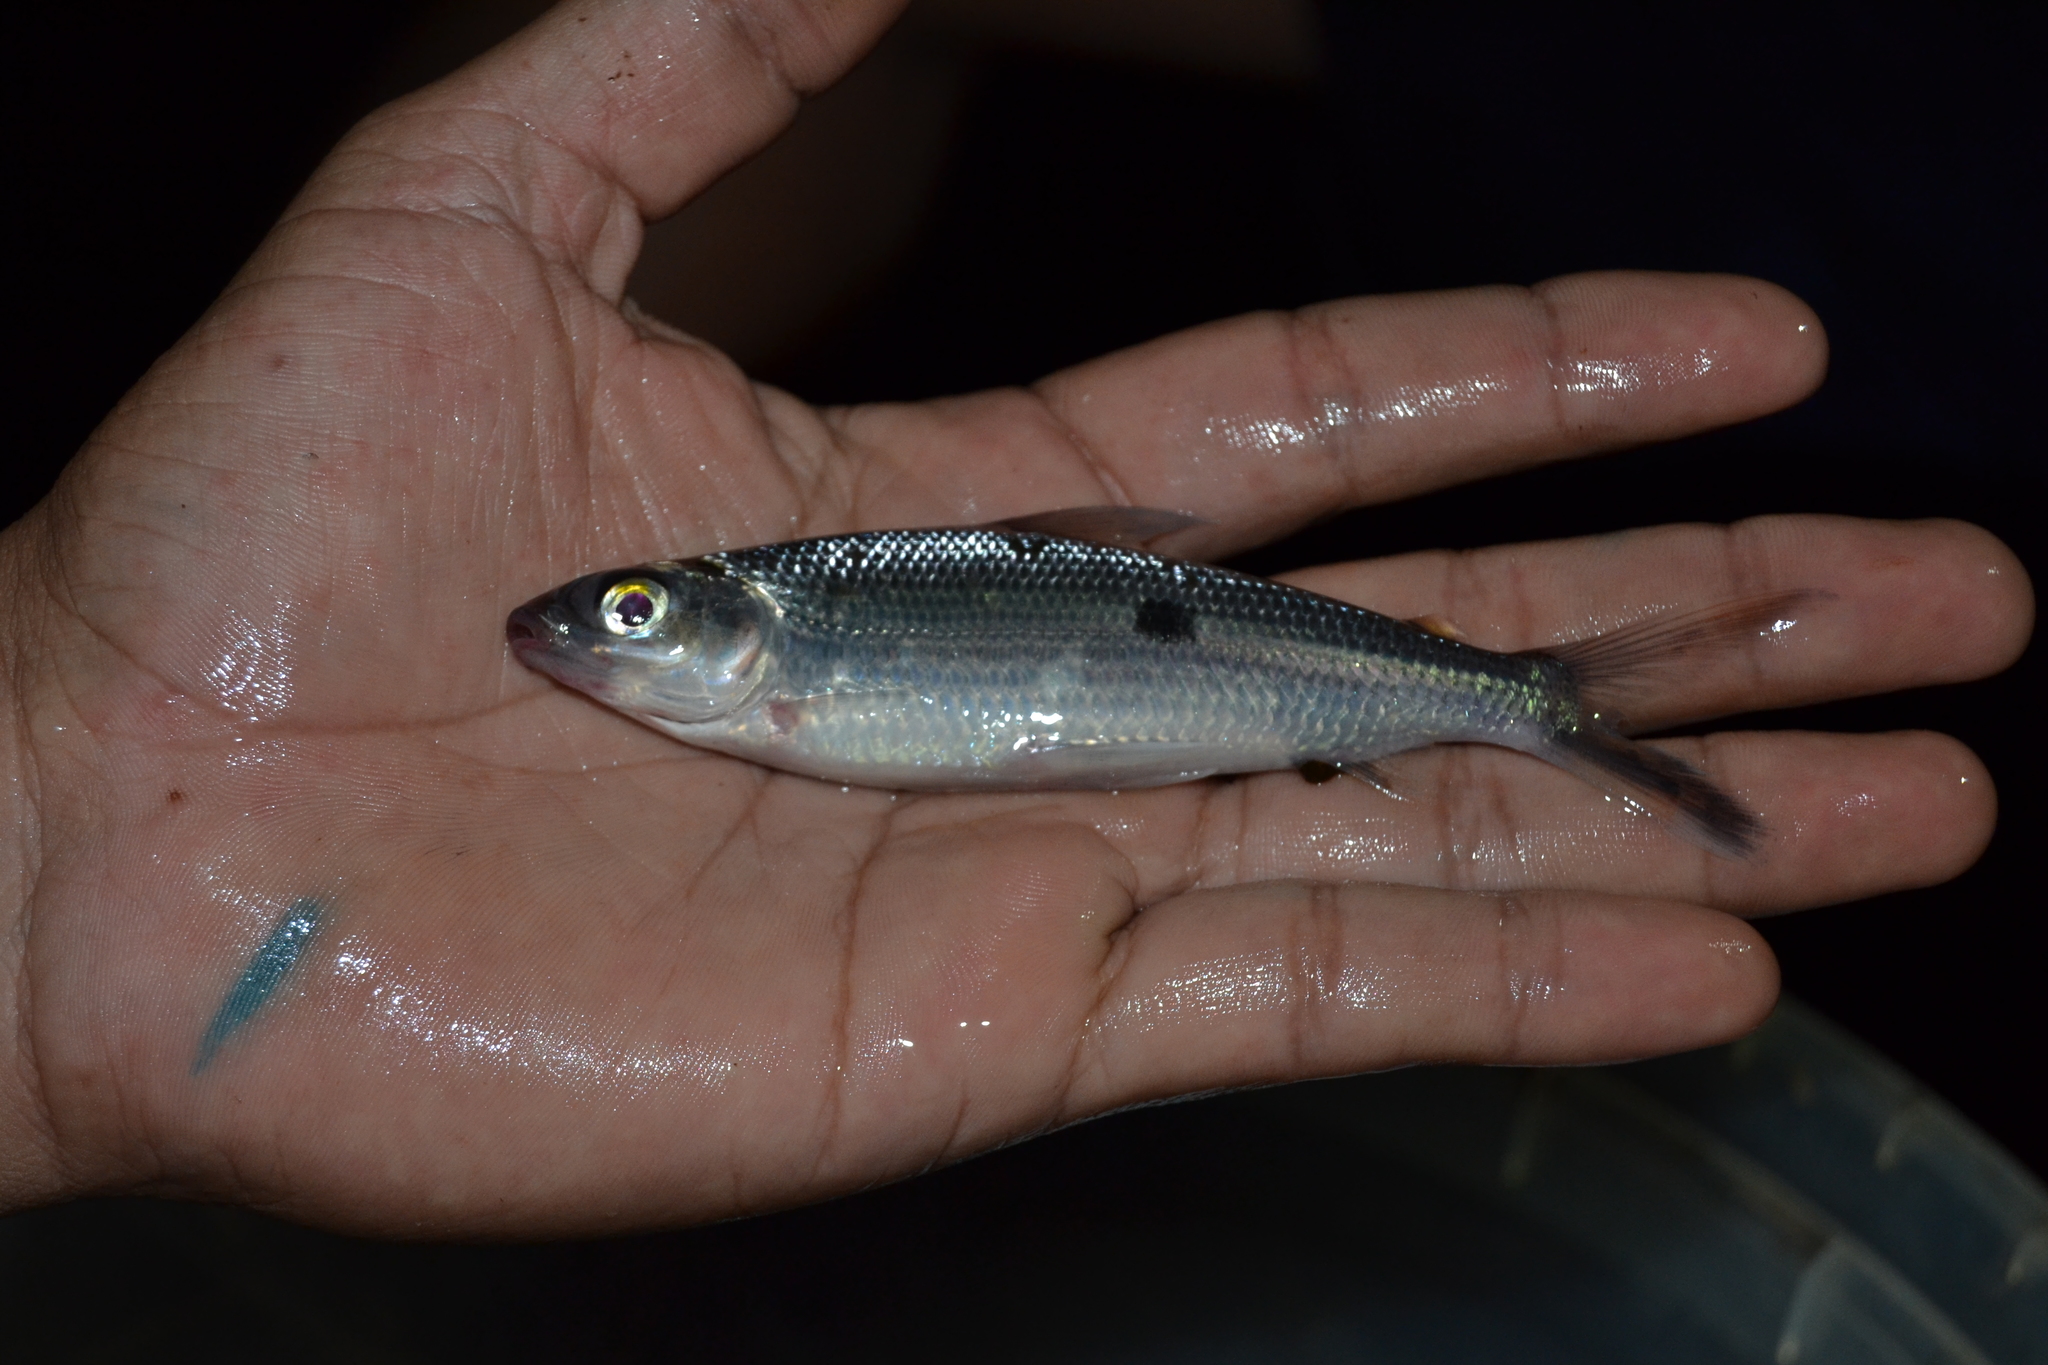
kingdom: Animalia
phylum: Chordata
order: Characiformes
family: Hemiodontidae
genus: Hemiodus
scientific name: Hemiodus microlepis
